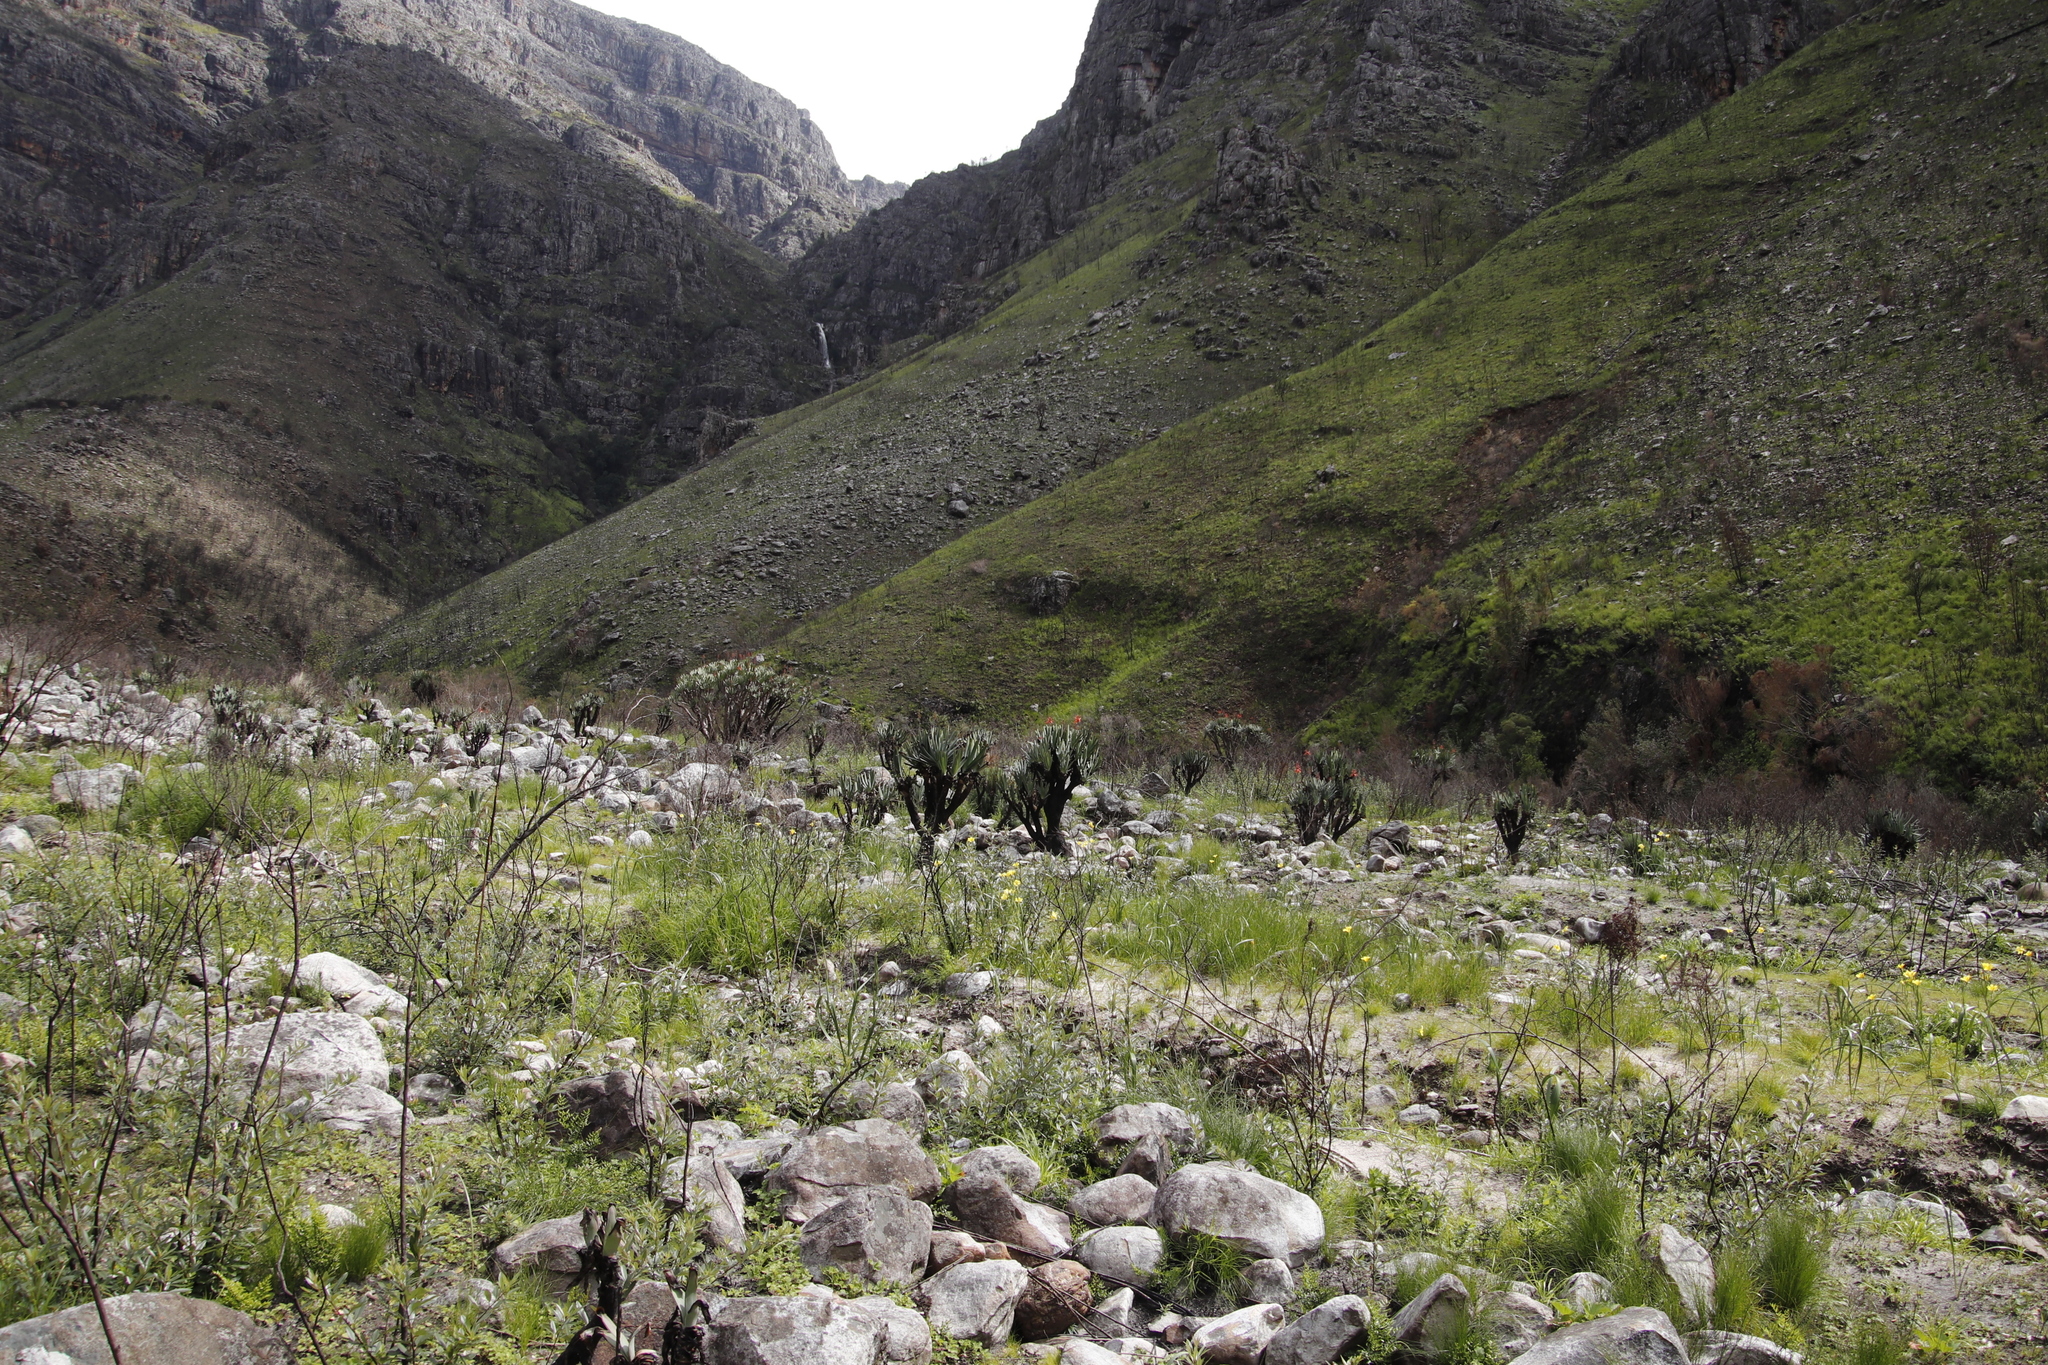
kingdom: Plantae
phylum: Tracheophyta
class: Liliopsida
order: Asparagales
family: Asphodelaceae
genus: Kumara
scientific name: Kumara plicatilis
